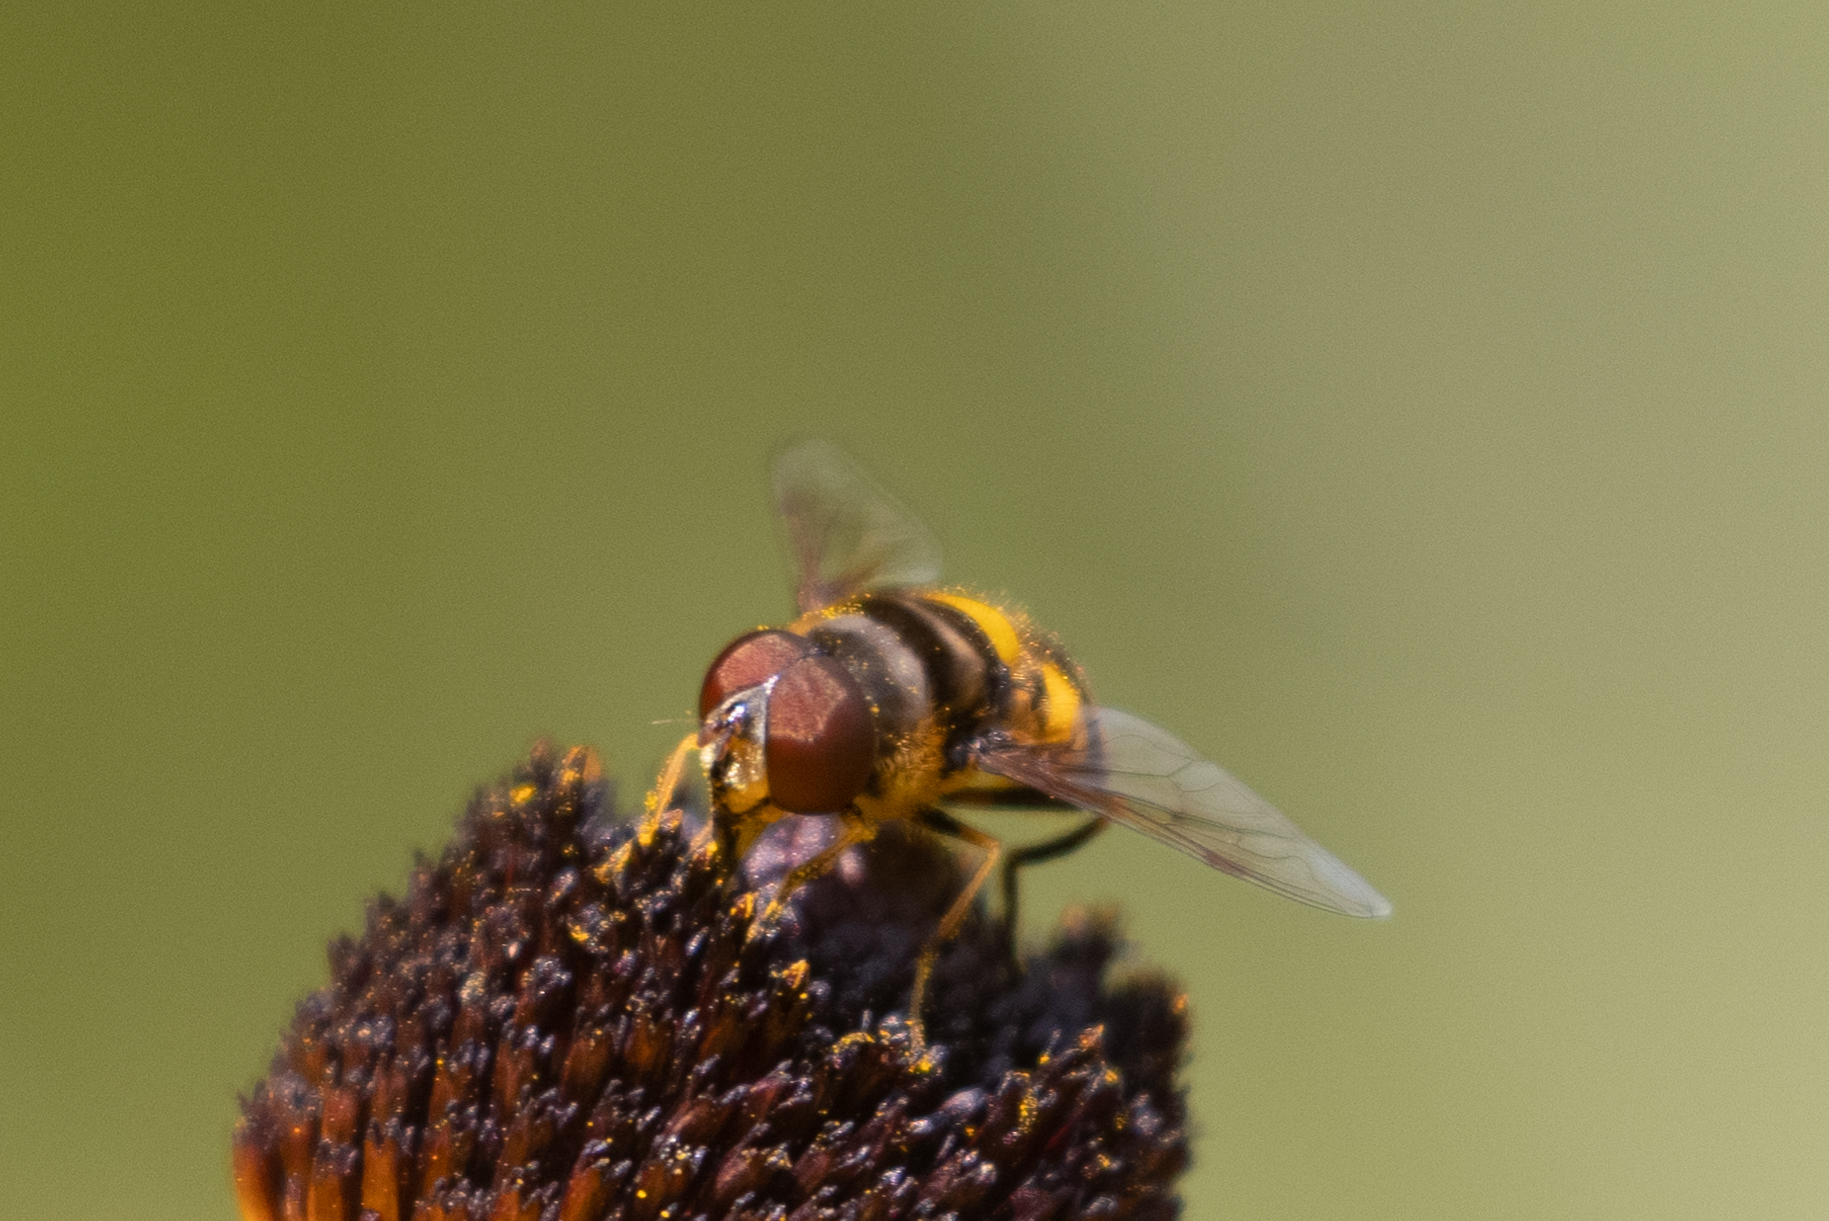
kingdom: Animalia
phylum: Arthropoda
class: Insecta
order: Diptera
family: Syrphidae
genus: Eristalis
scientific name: Eristalis transversa
